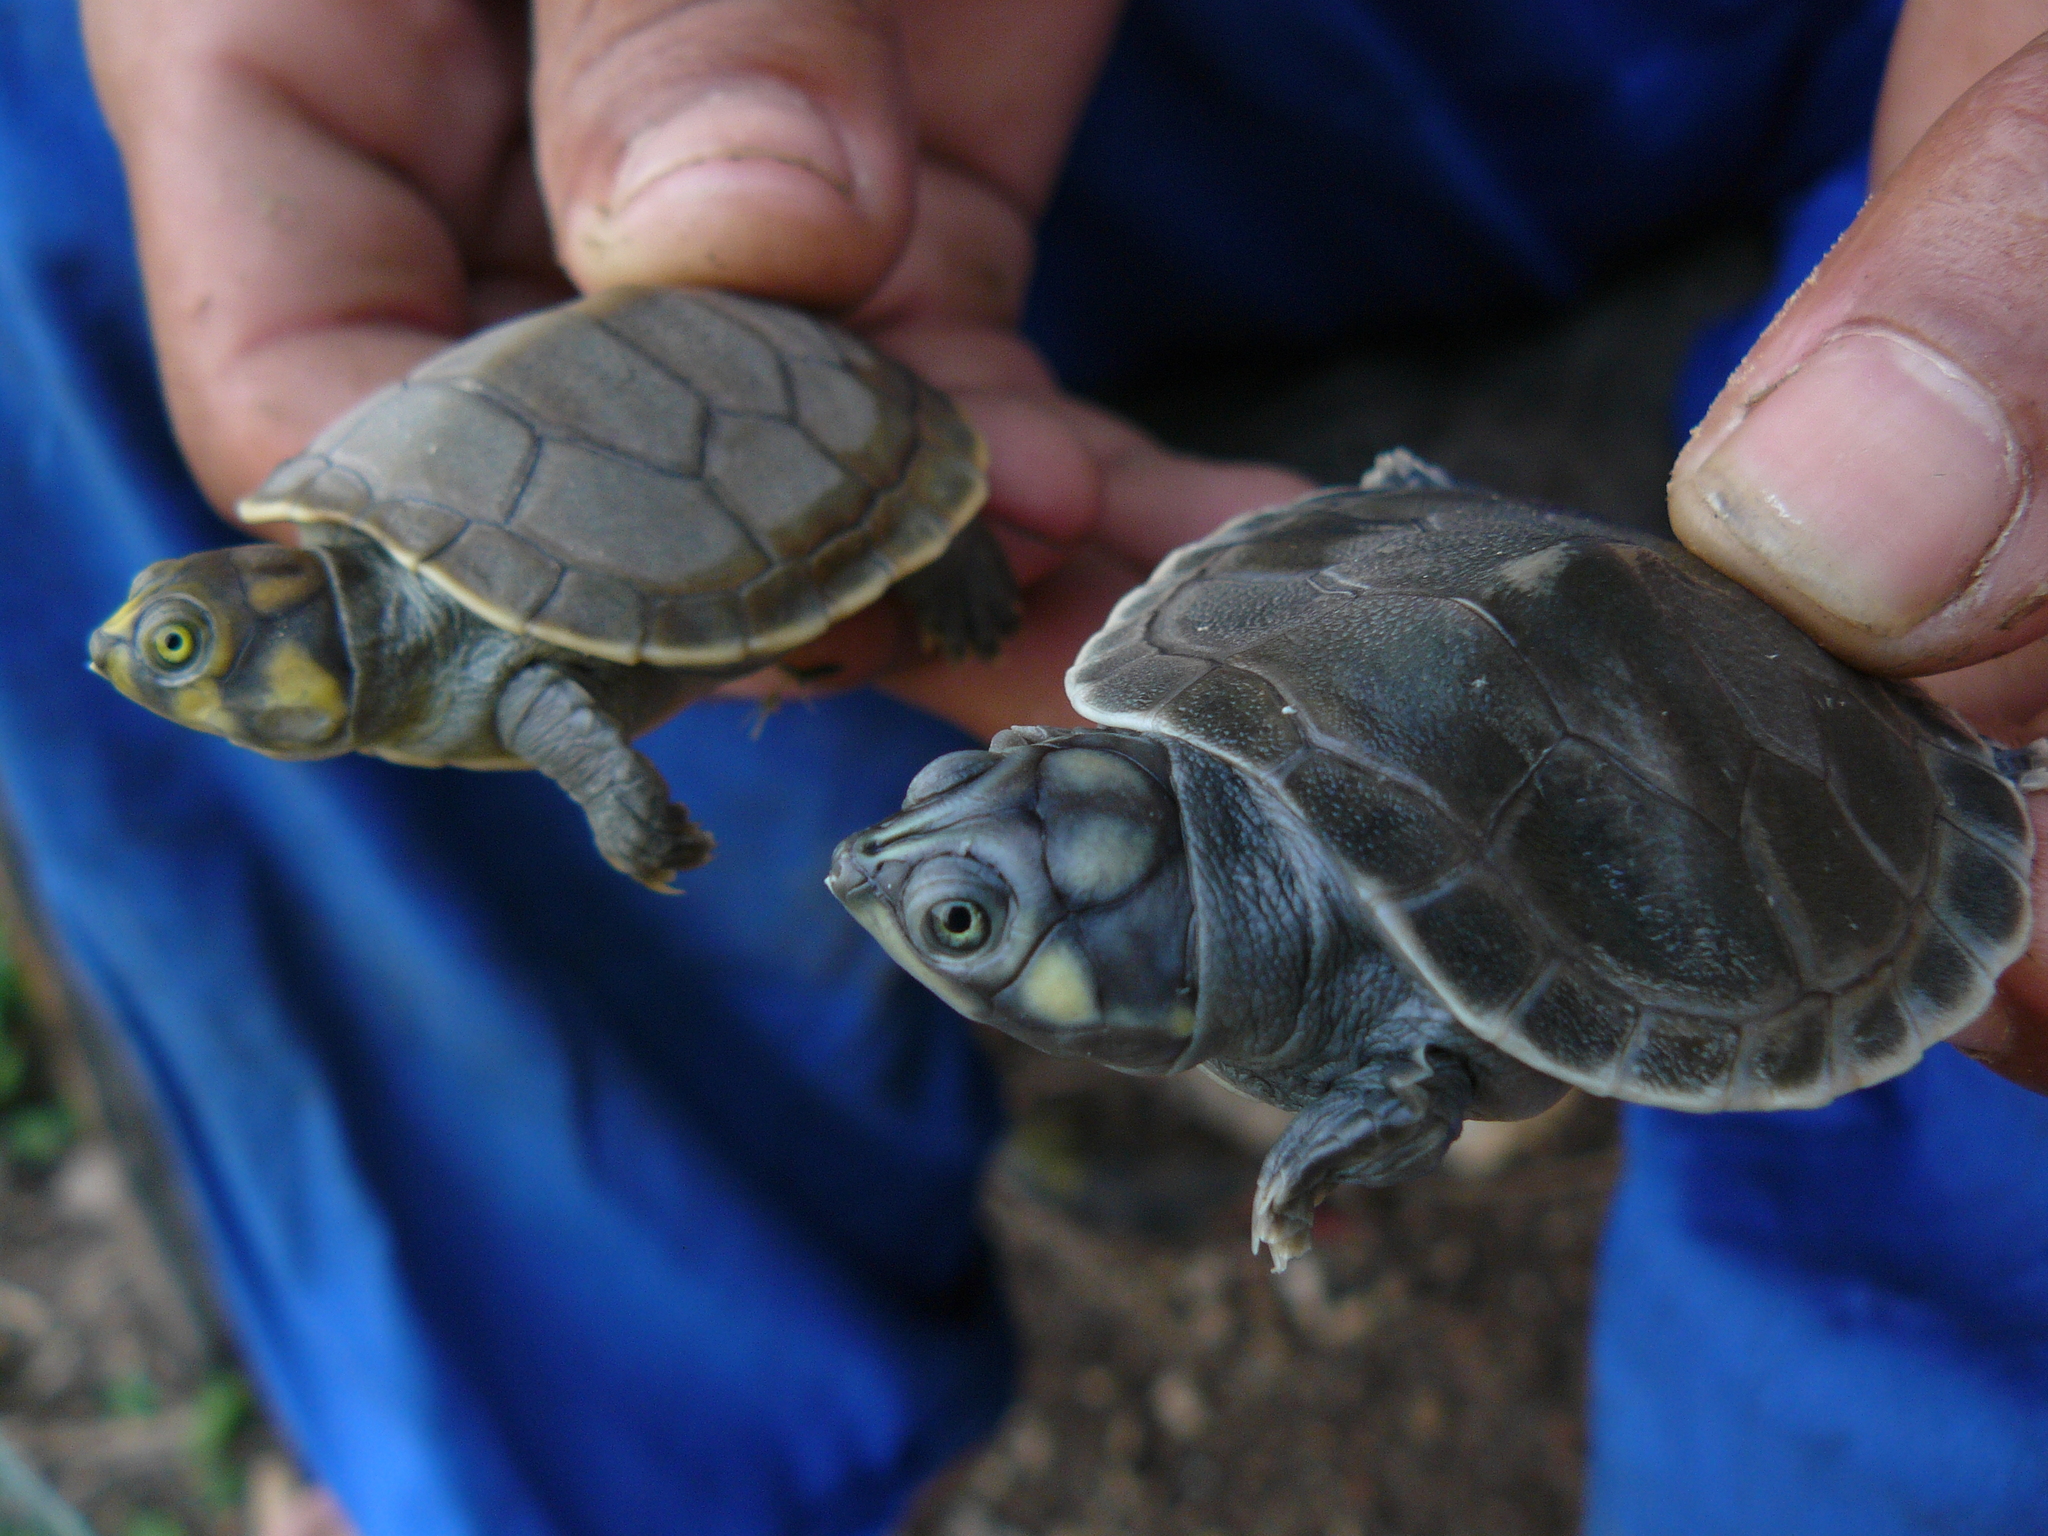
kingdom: Animalia
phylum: Chordata
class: Testudines
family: Podocnemididae
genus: Podocnemis
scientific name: Podocnemis unifilis
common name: Yellow-spotted amazon river turtle
